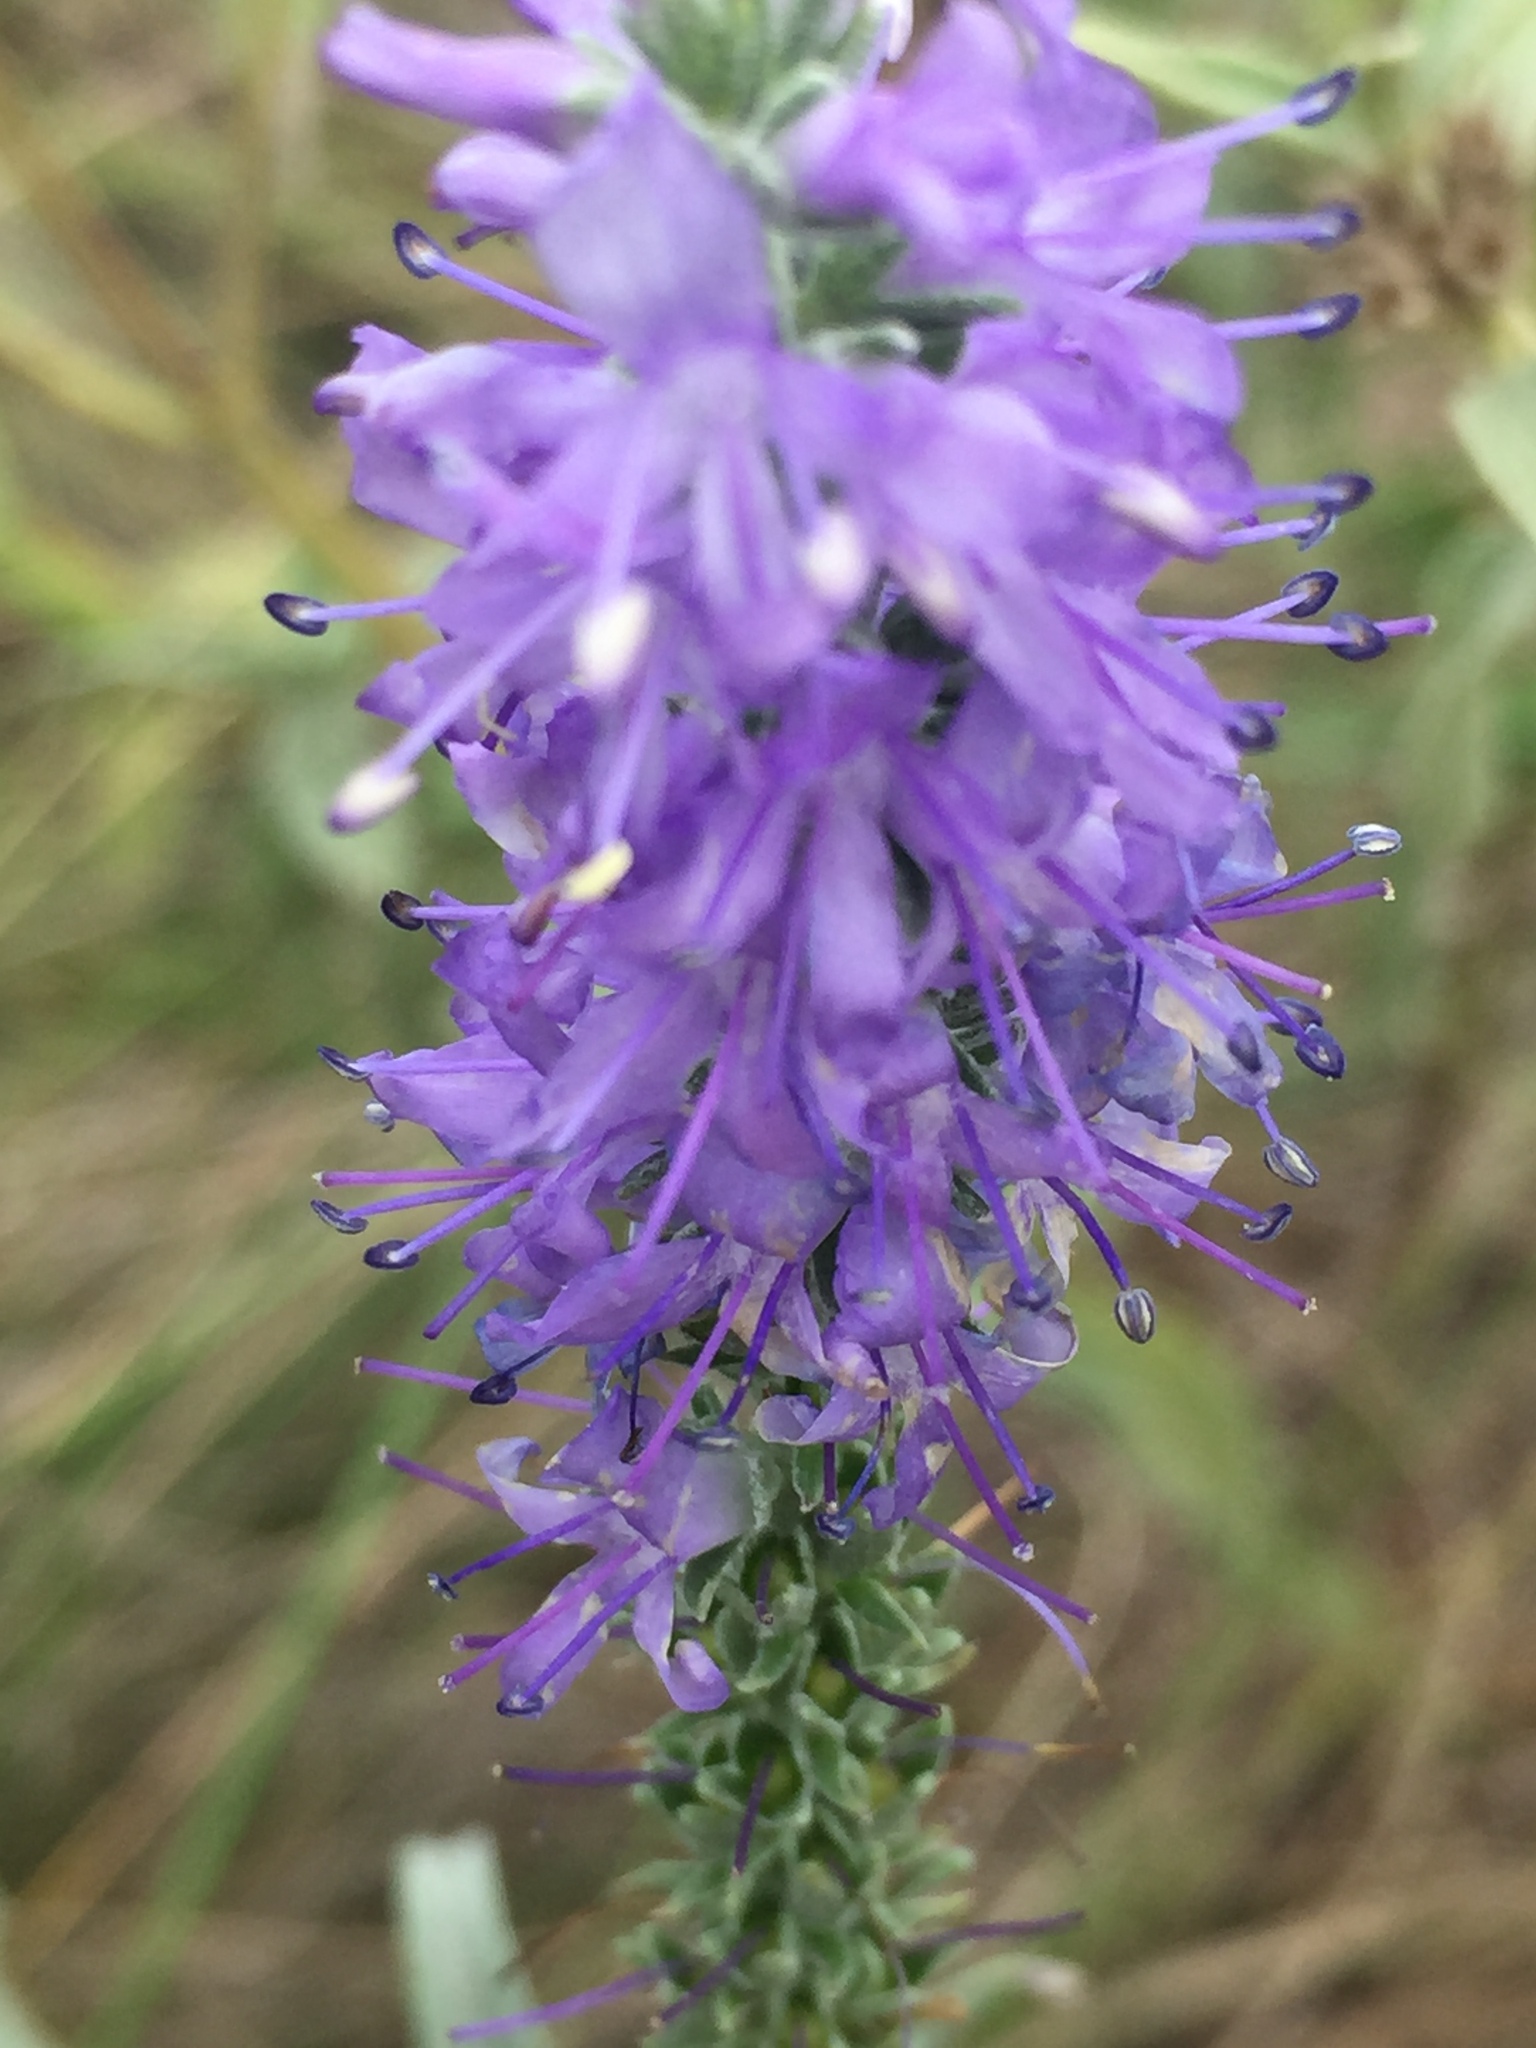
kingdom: Plantae
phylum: Tracheophyta
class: Magnoliopsida
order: Lamiales
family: Plantaginaceae
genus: Veronica
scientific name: Veronica incana
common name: Silver speedwell
